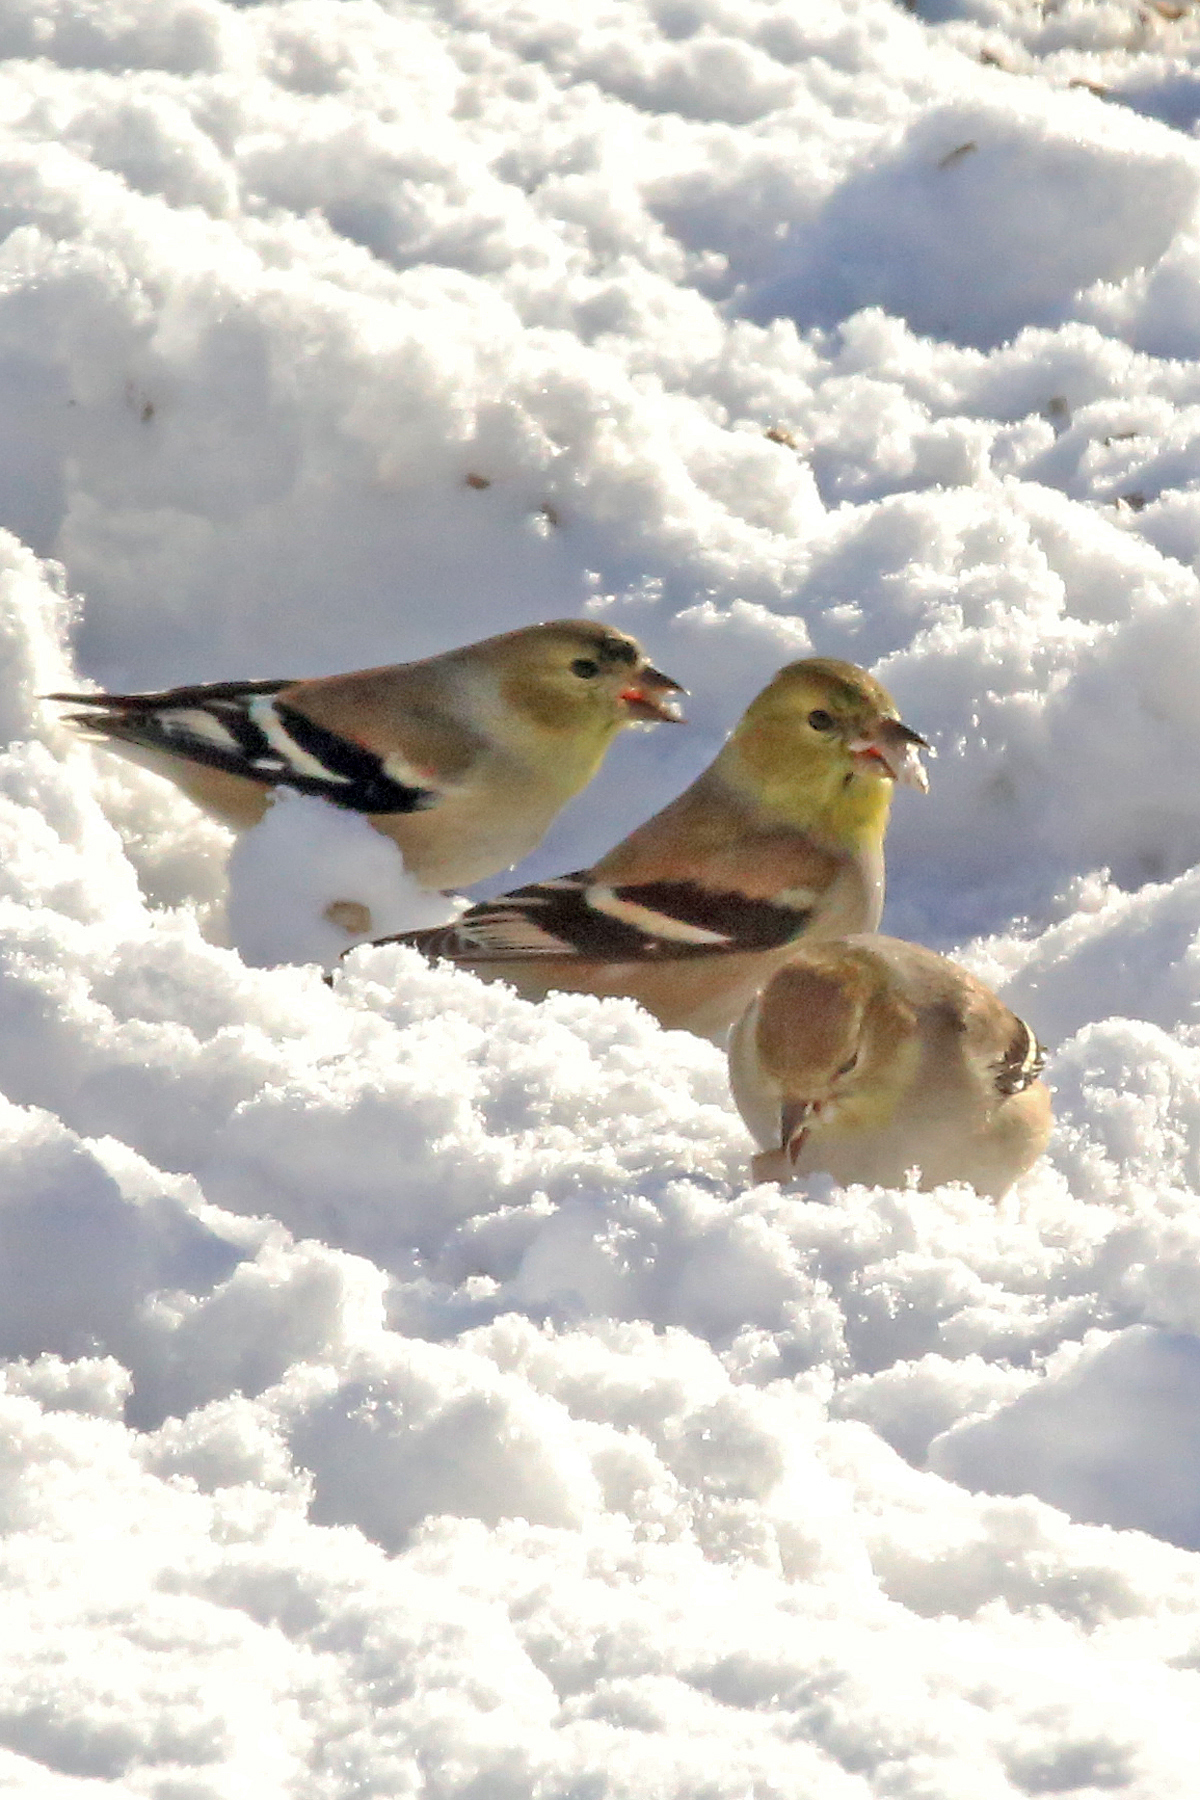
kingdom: Animalia
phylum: Chordata
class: Aves
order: Passeriformes
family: Fringillidae
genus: Spinus
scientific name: Spinus tristis
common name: American goldfinch
